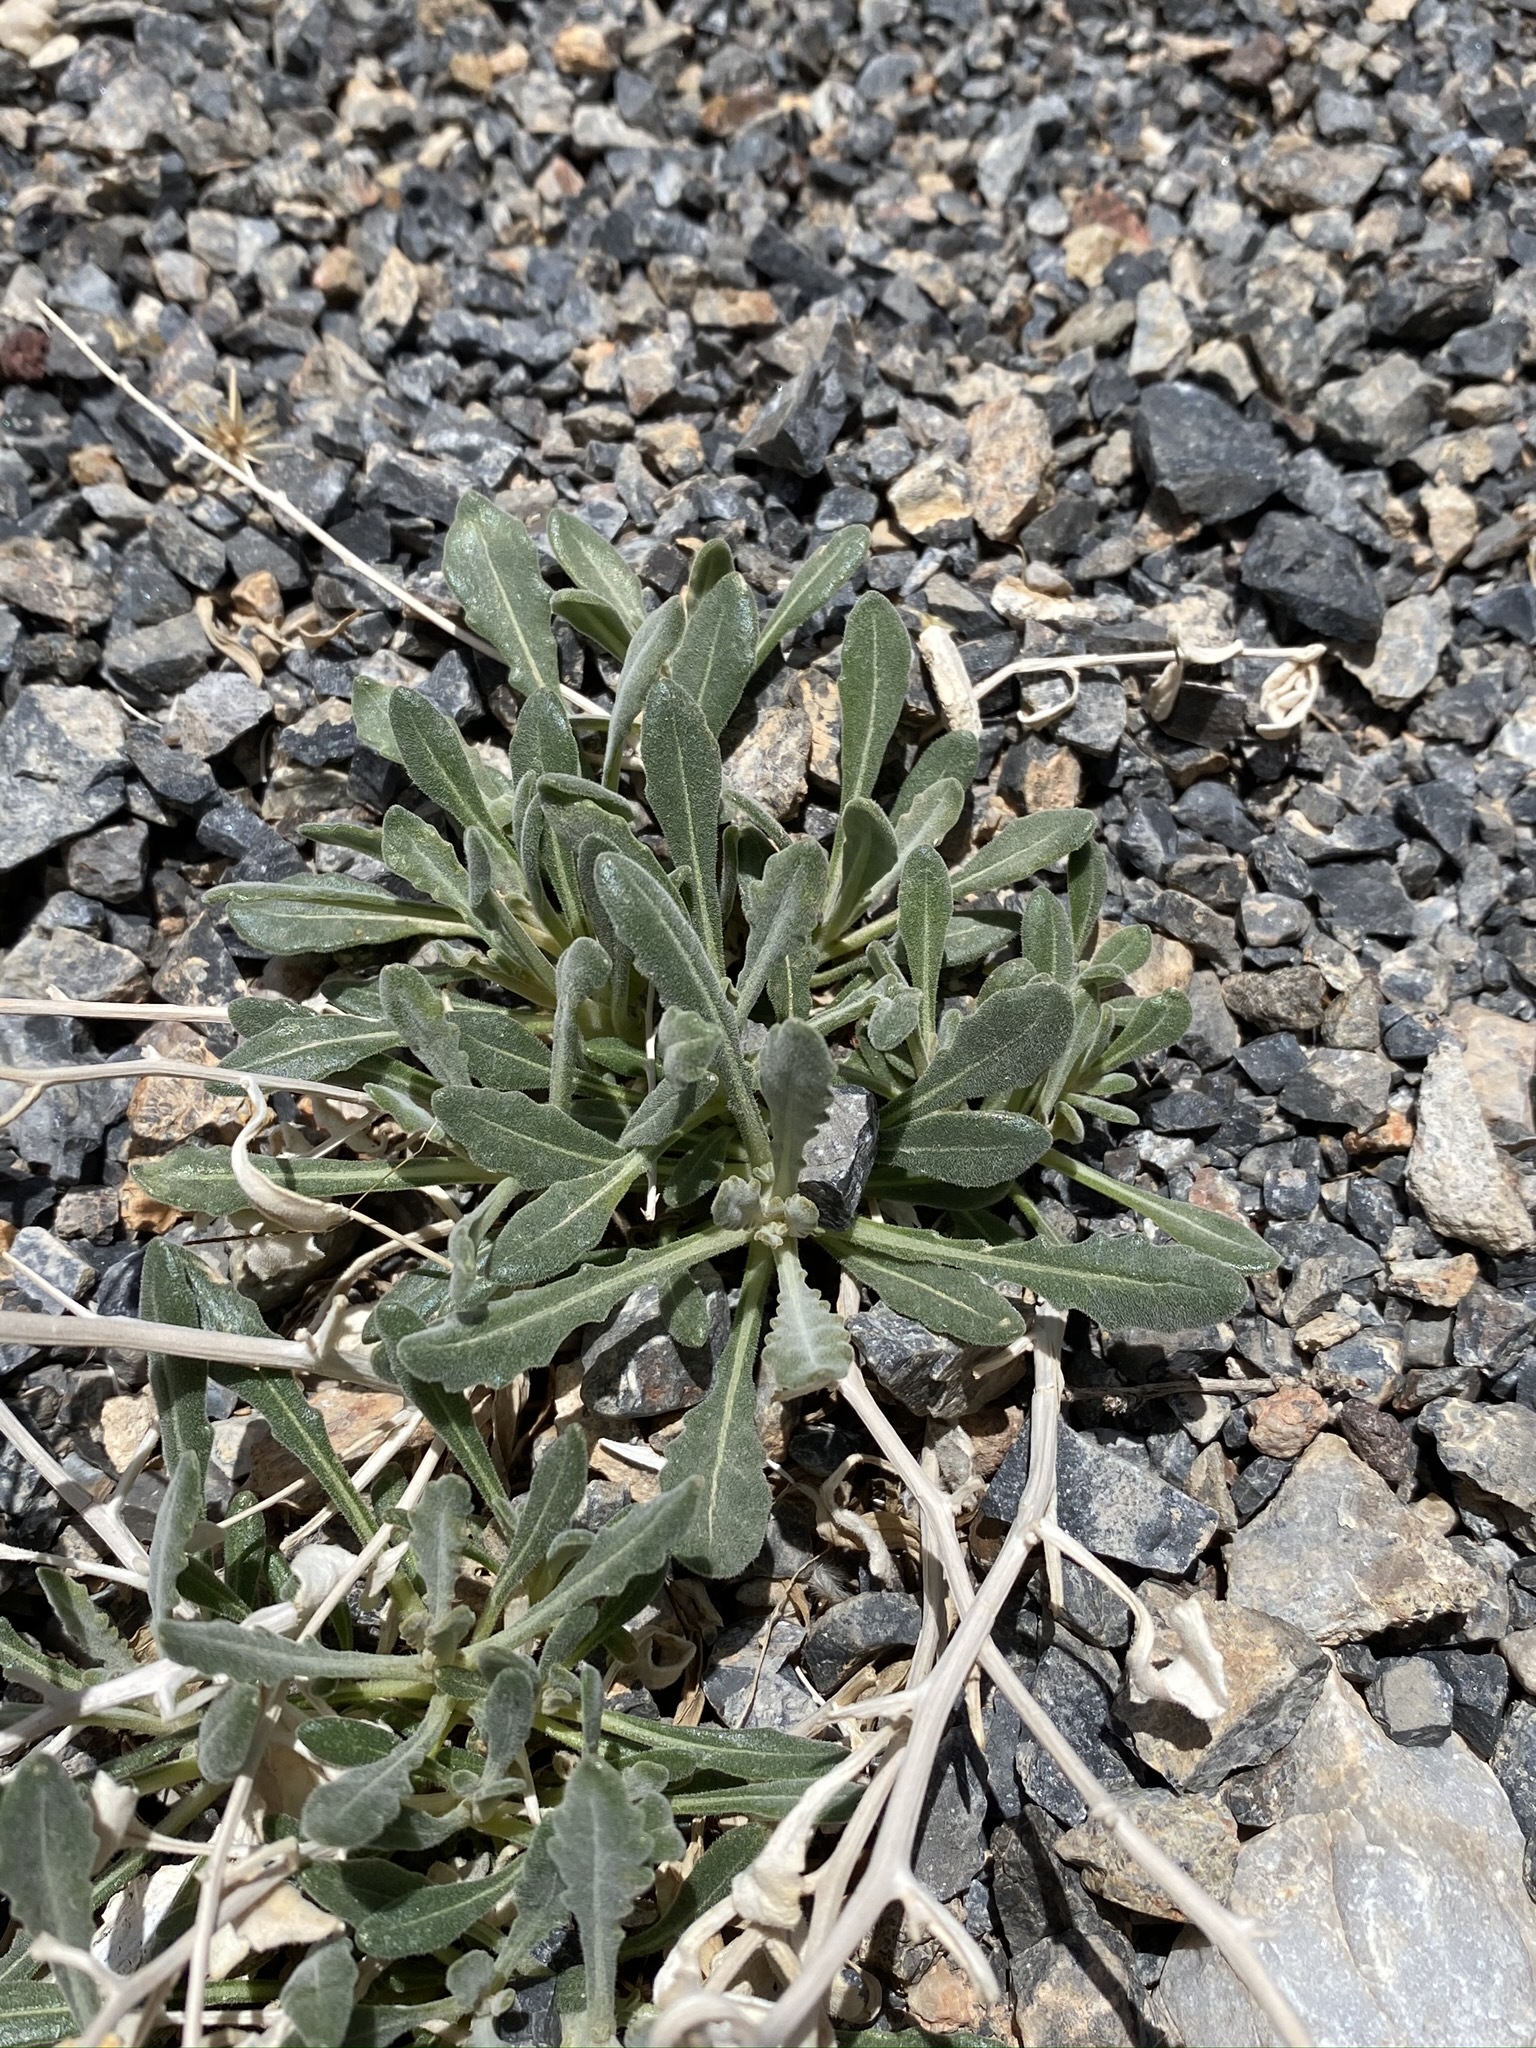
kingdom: Plantae
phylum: Tracheophyta
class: Magnoliopsida
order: Cornales
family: Loasaceae
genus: Mentzelia
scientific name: Mentzelia oreophila
